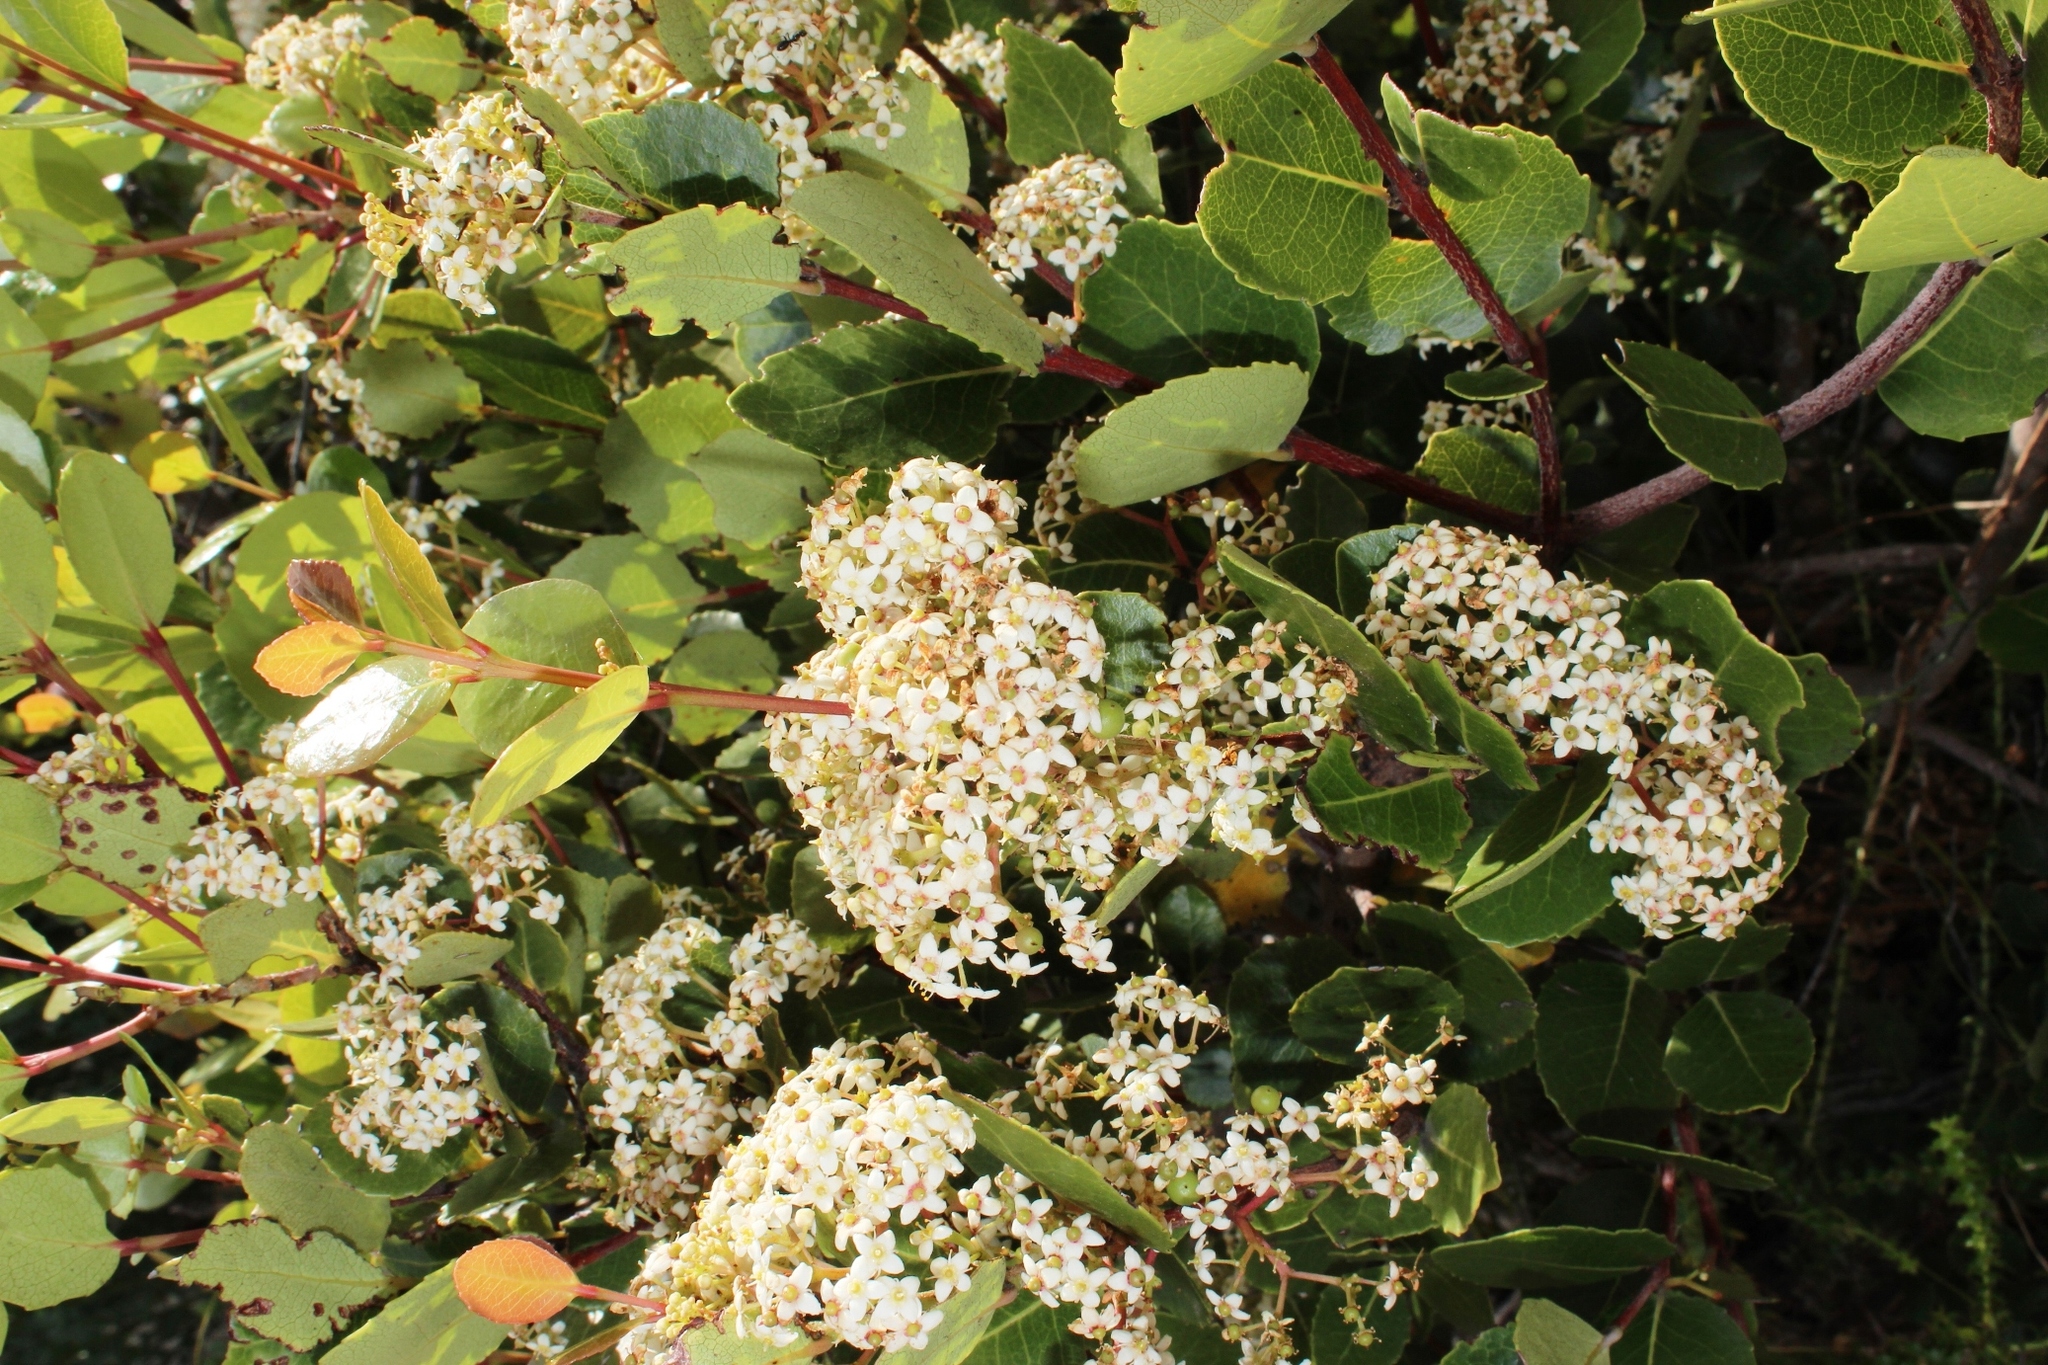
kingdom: Plantae
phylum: Tracheophyta
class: Magnoliopsida
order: Celastrales
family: Celastraceae
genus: Cassine
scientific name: Cassine peragua
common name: Cape saffron
